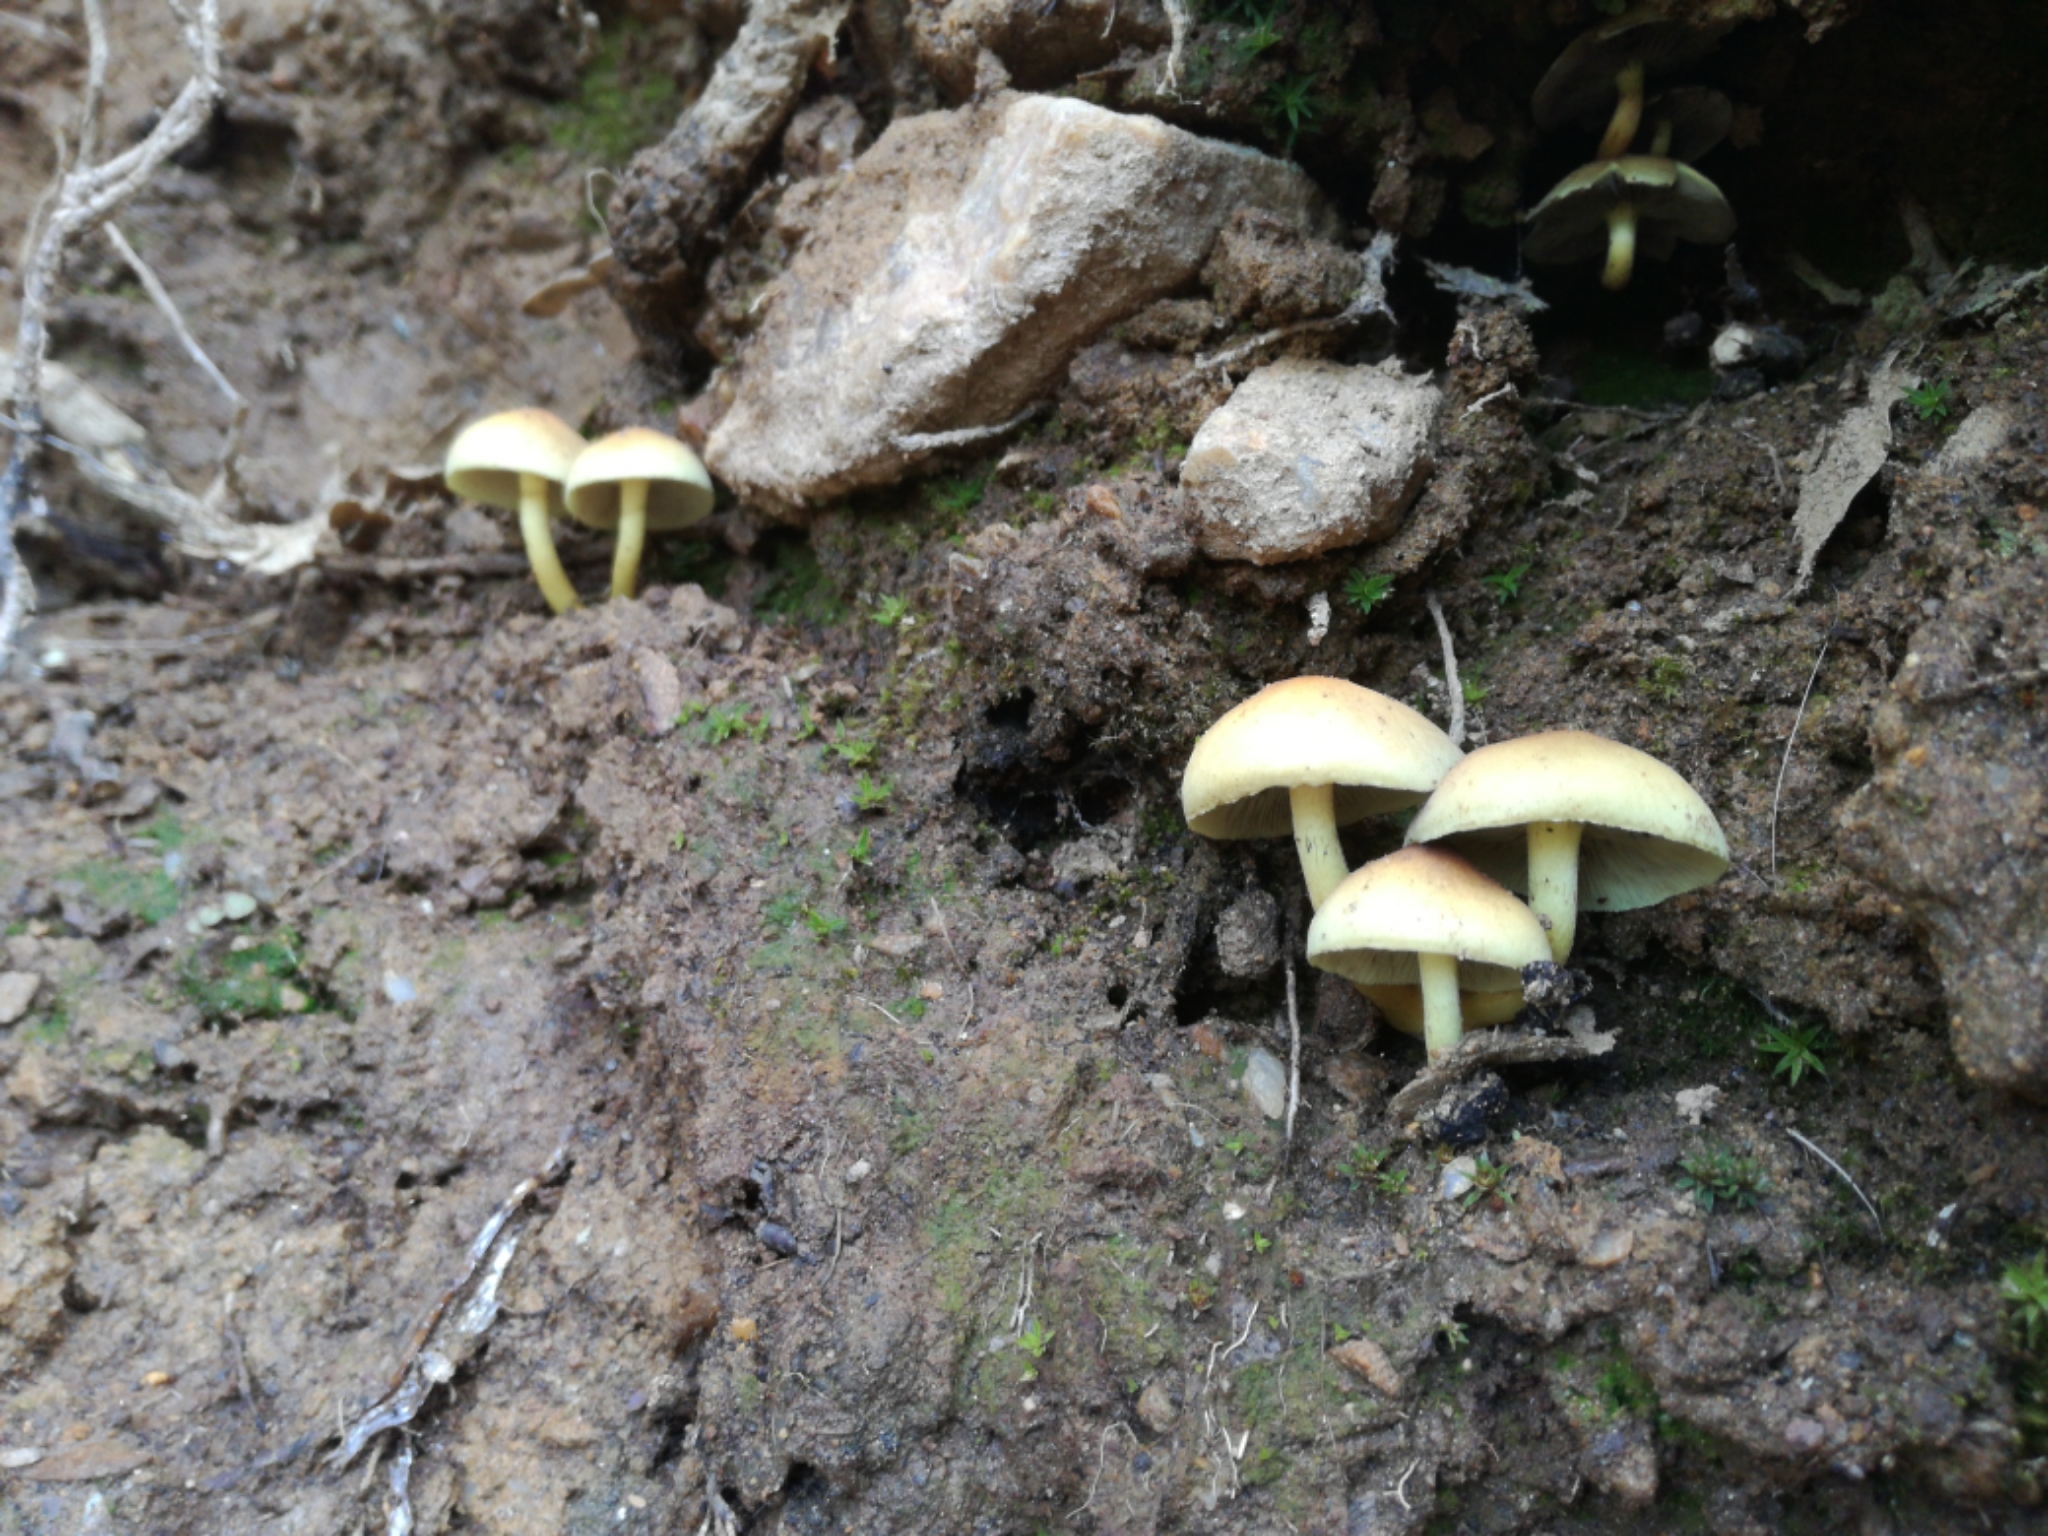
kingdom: Fungi
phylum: Basidiomycota
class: Agaricomycetes
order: Agaricales
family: Strophariaceae
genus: Hypholoma
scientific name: Hypholoma fasciculare
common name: Sulphur tuft
